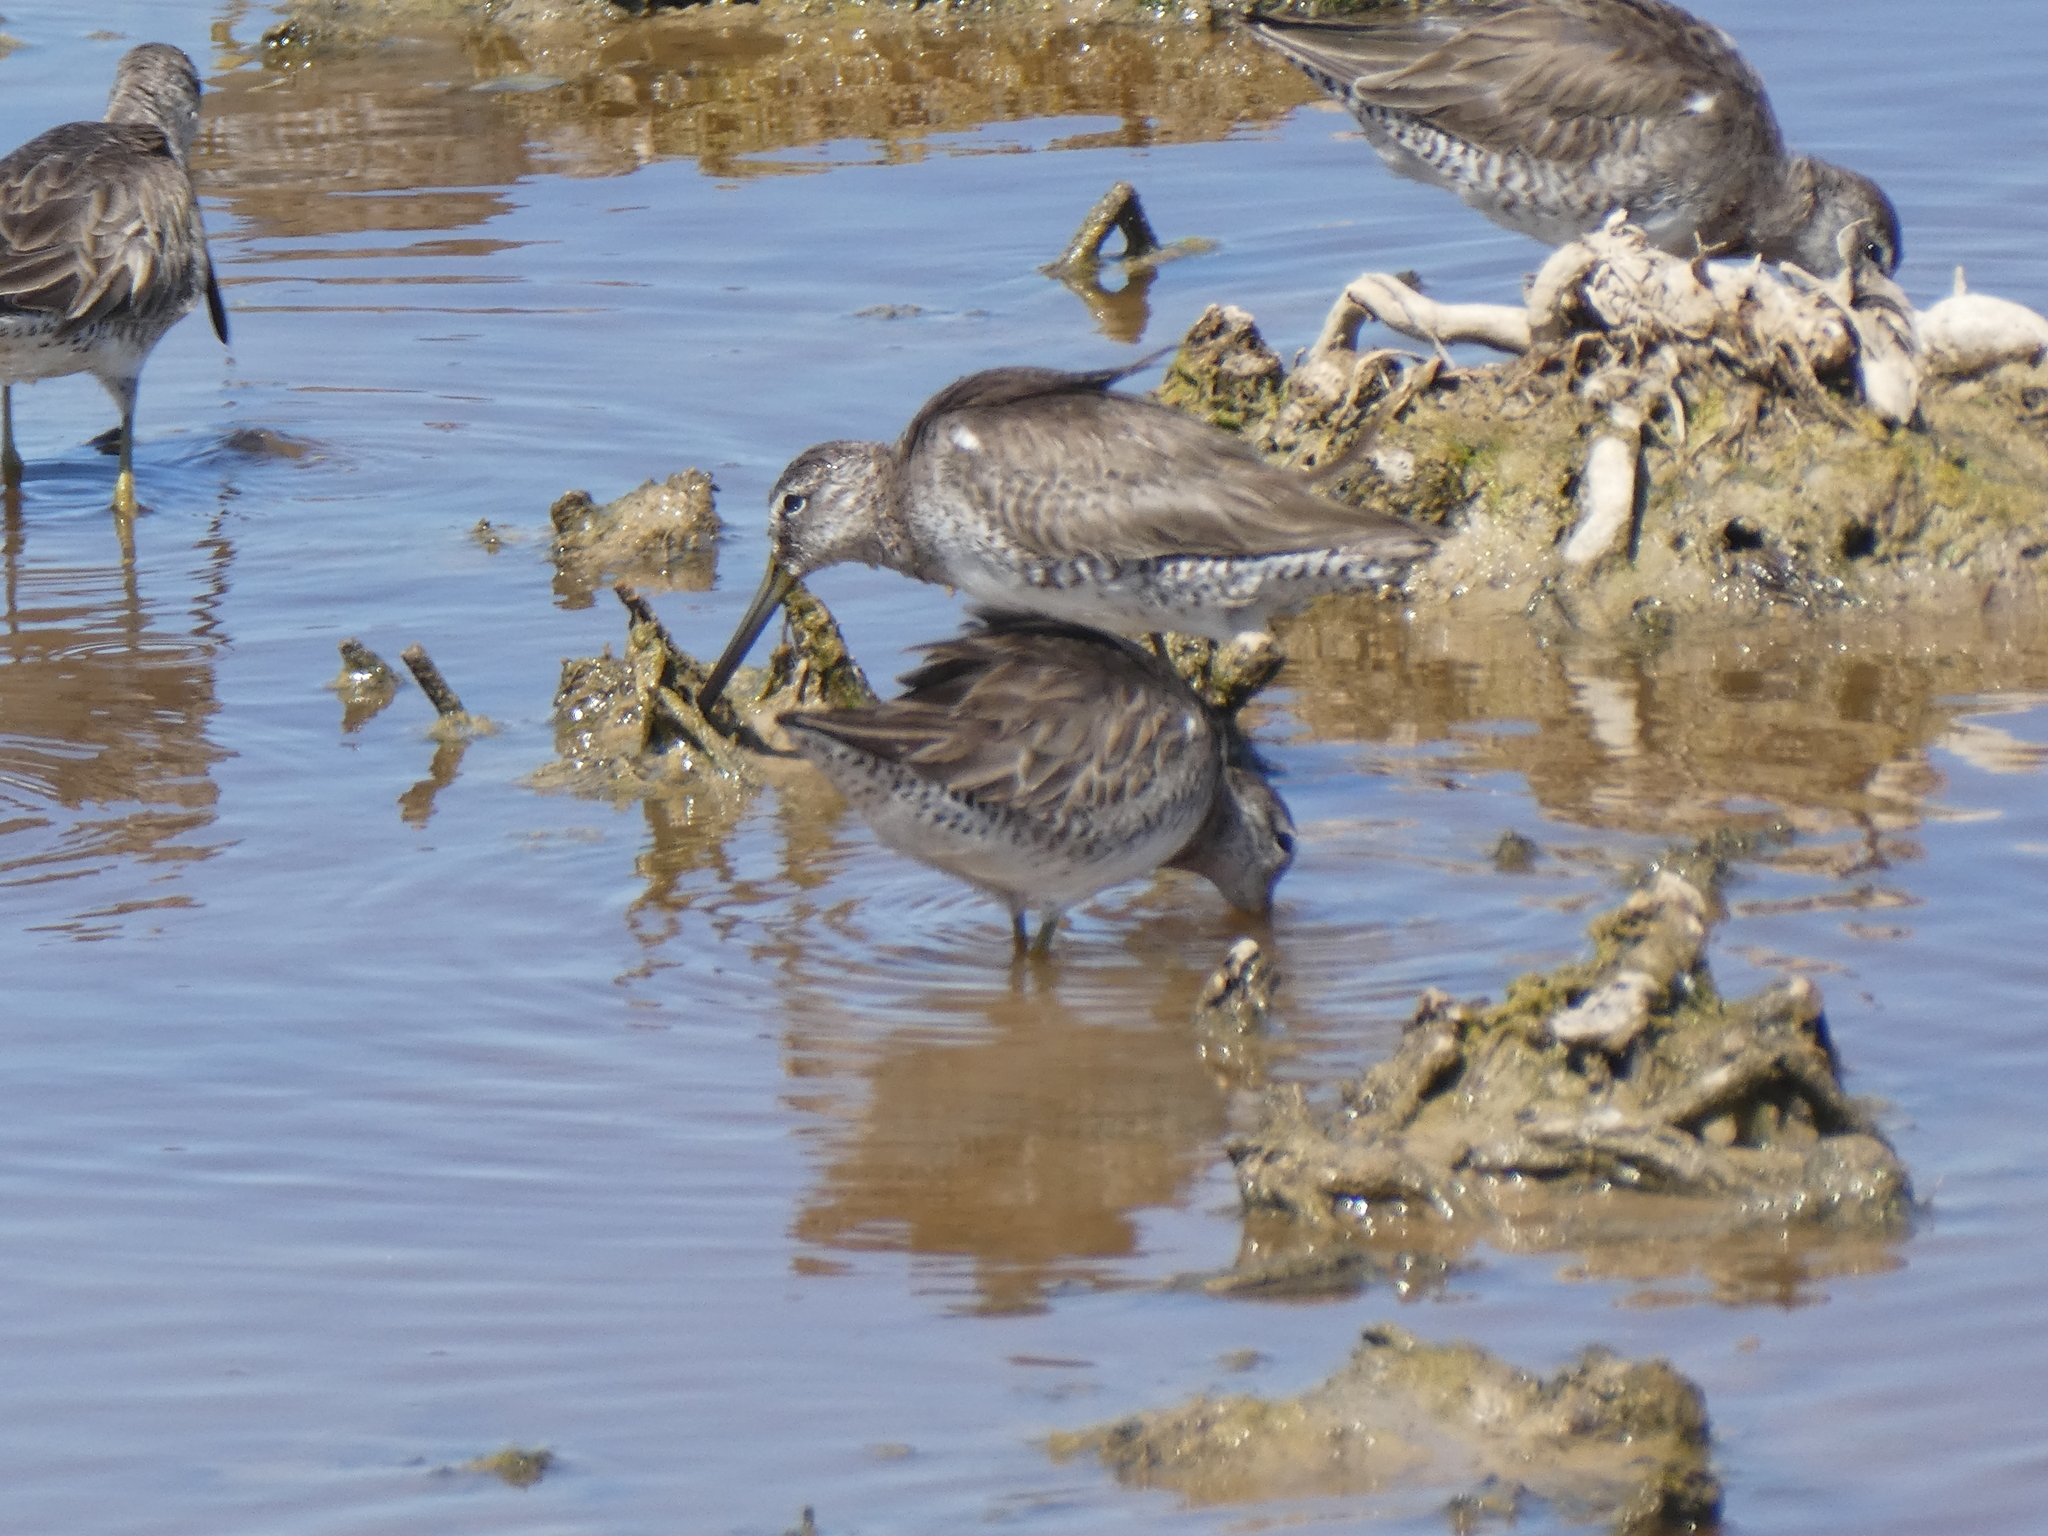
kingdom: Animalia
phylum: Chordata
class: Aves
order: Charadriiformes
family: Scolopacidae
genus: Limnodromus
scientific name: Limnodromus scolopaceus
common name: Long-billed dowitcher
